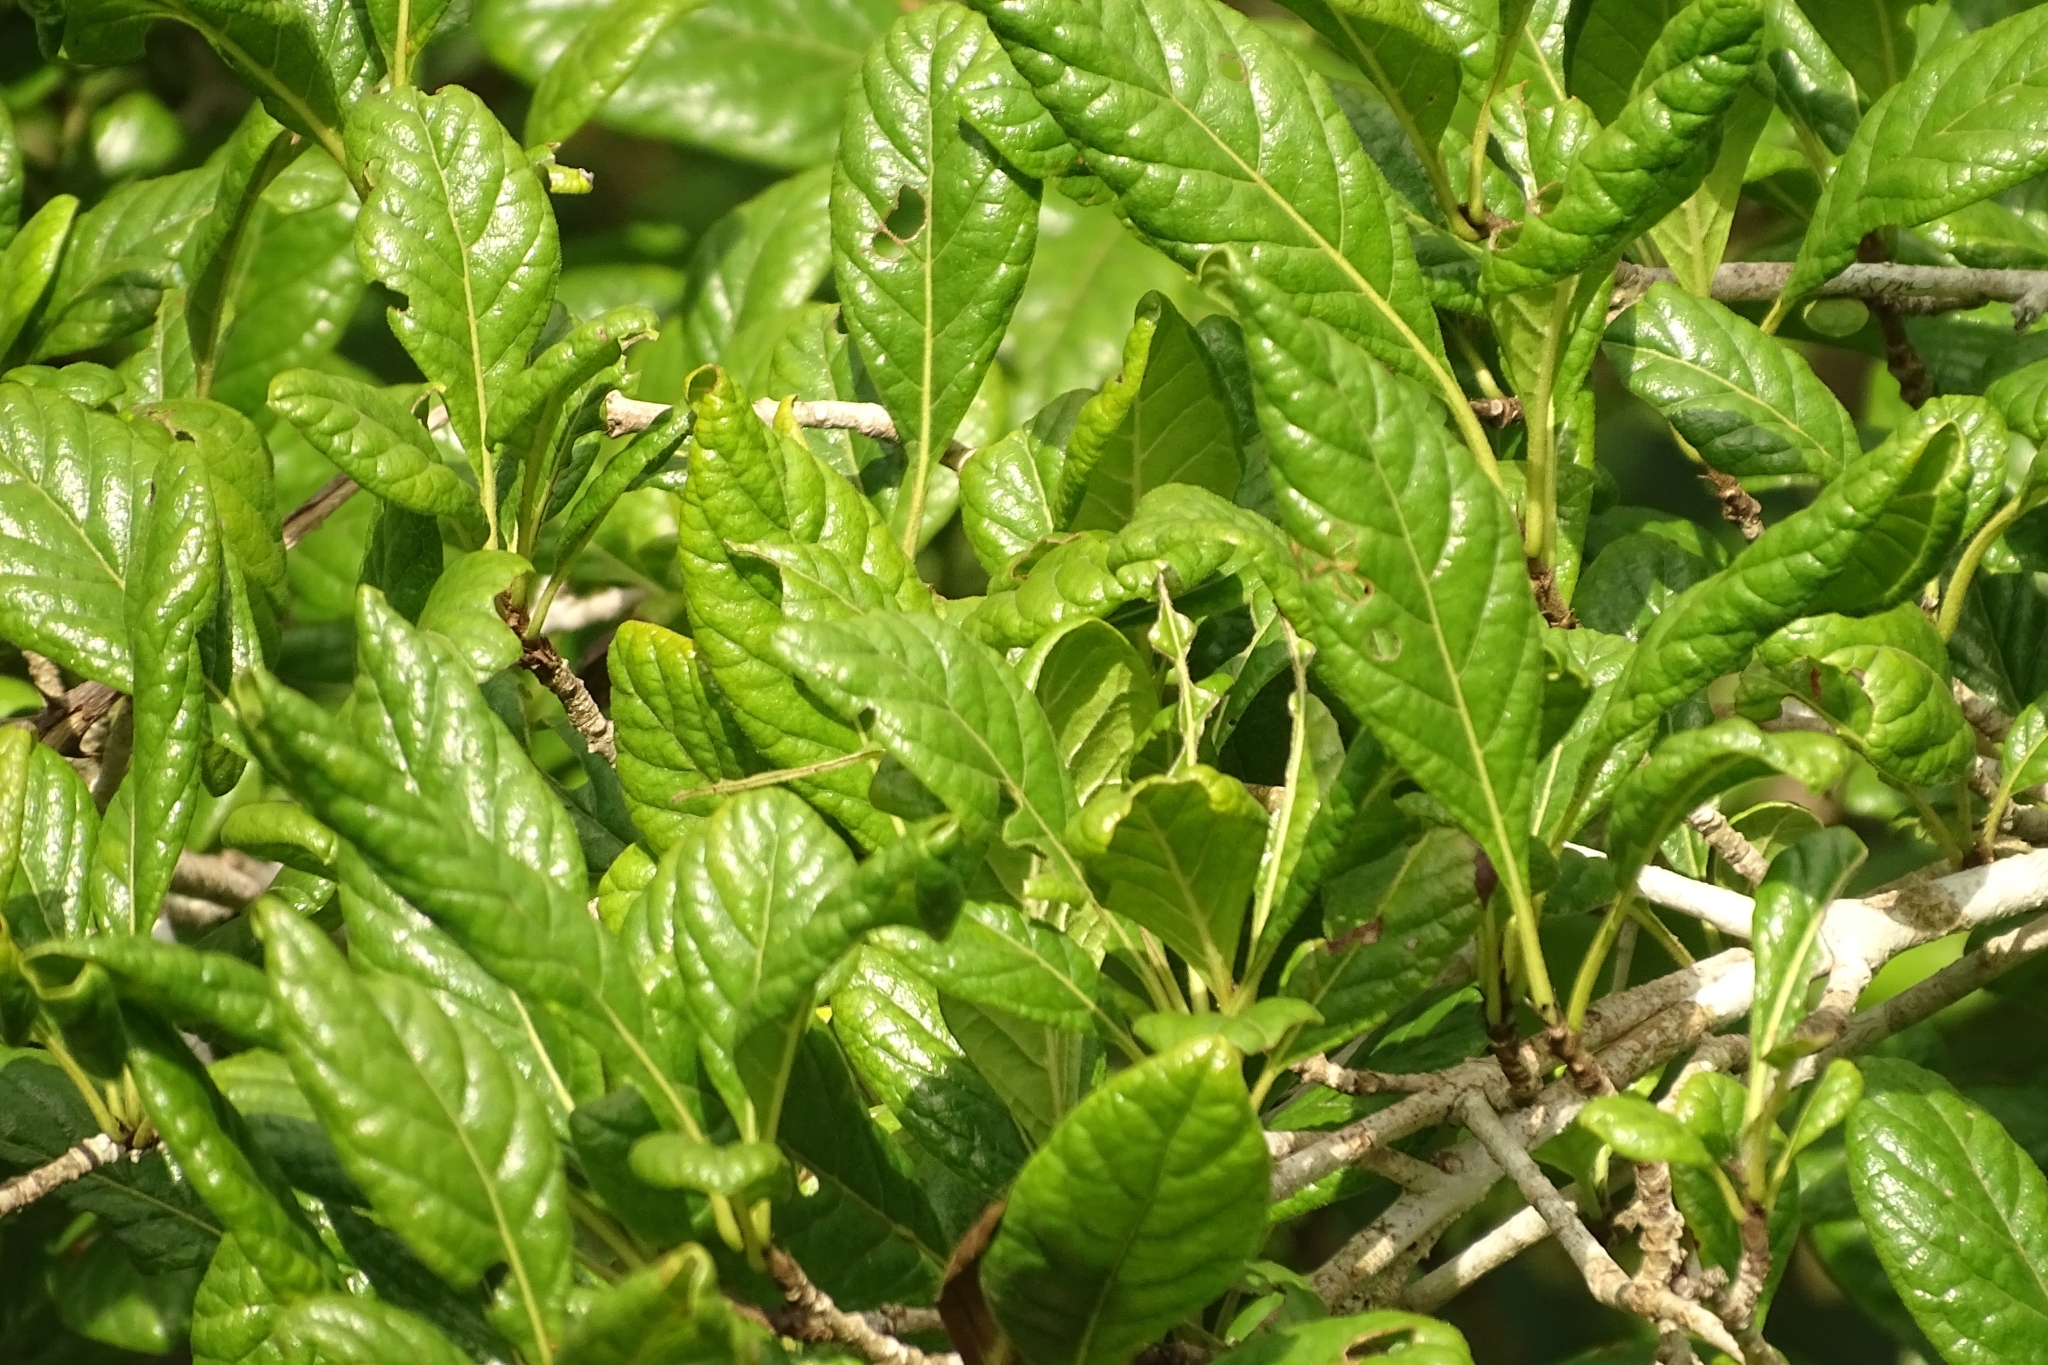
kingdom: Plantae
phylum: Tracheophyta
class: Magnoliopsida
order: Gentianales
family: Rubiaceae
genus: Catunaregam
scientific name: Catunaregam spinosa
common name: Emetic-nut
